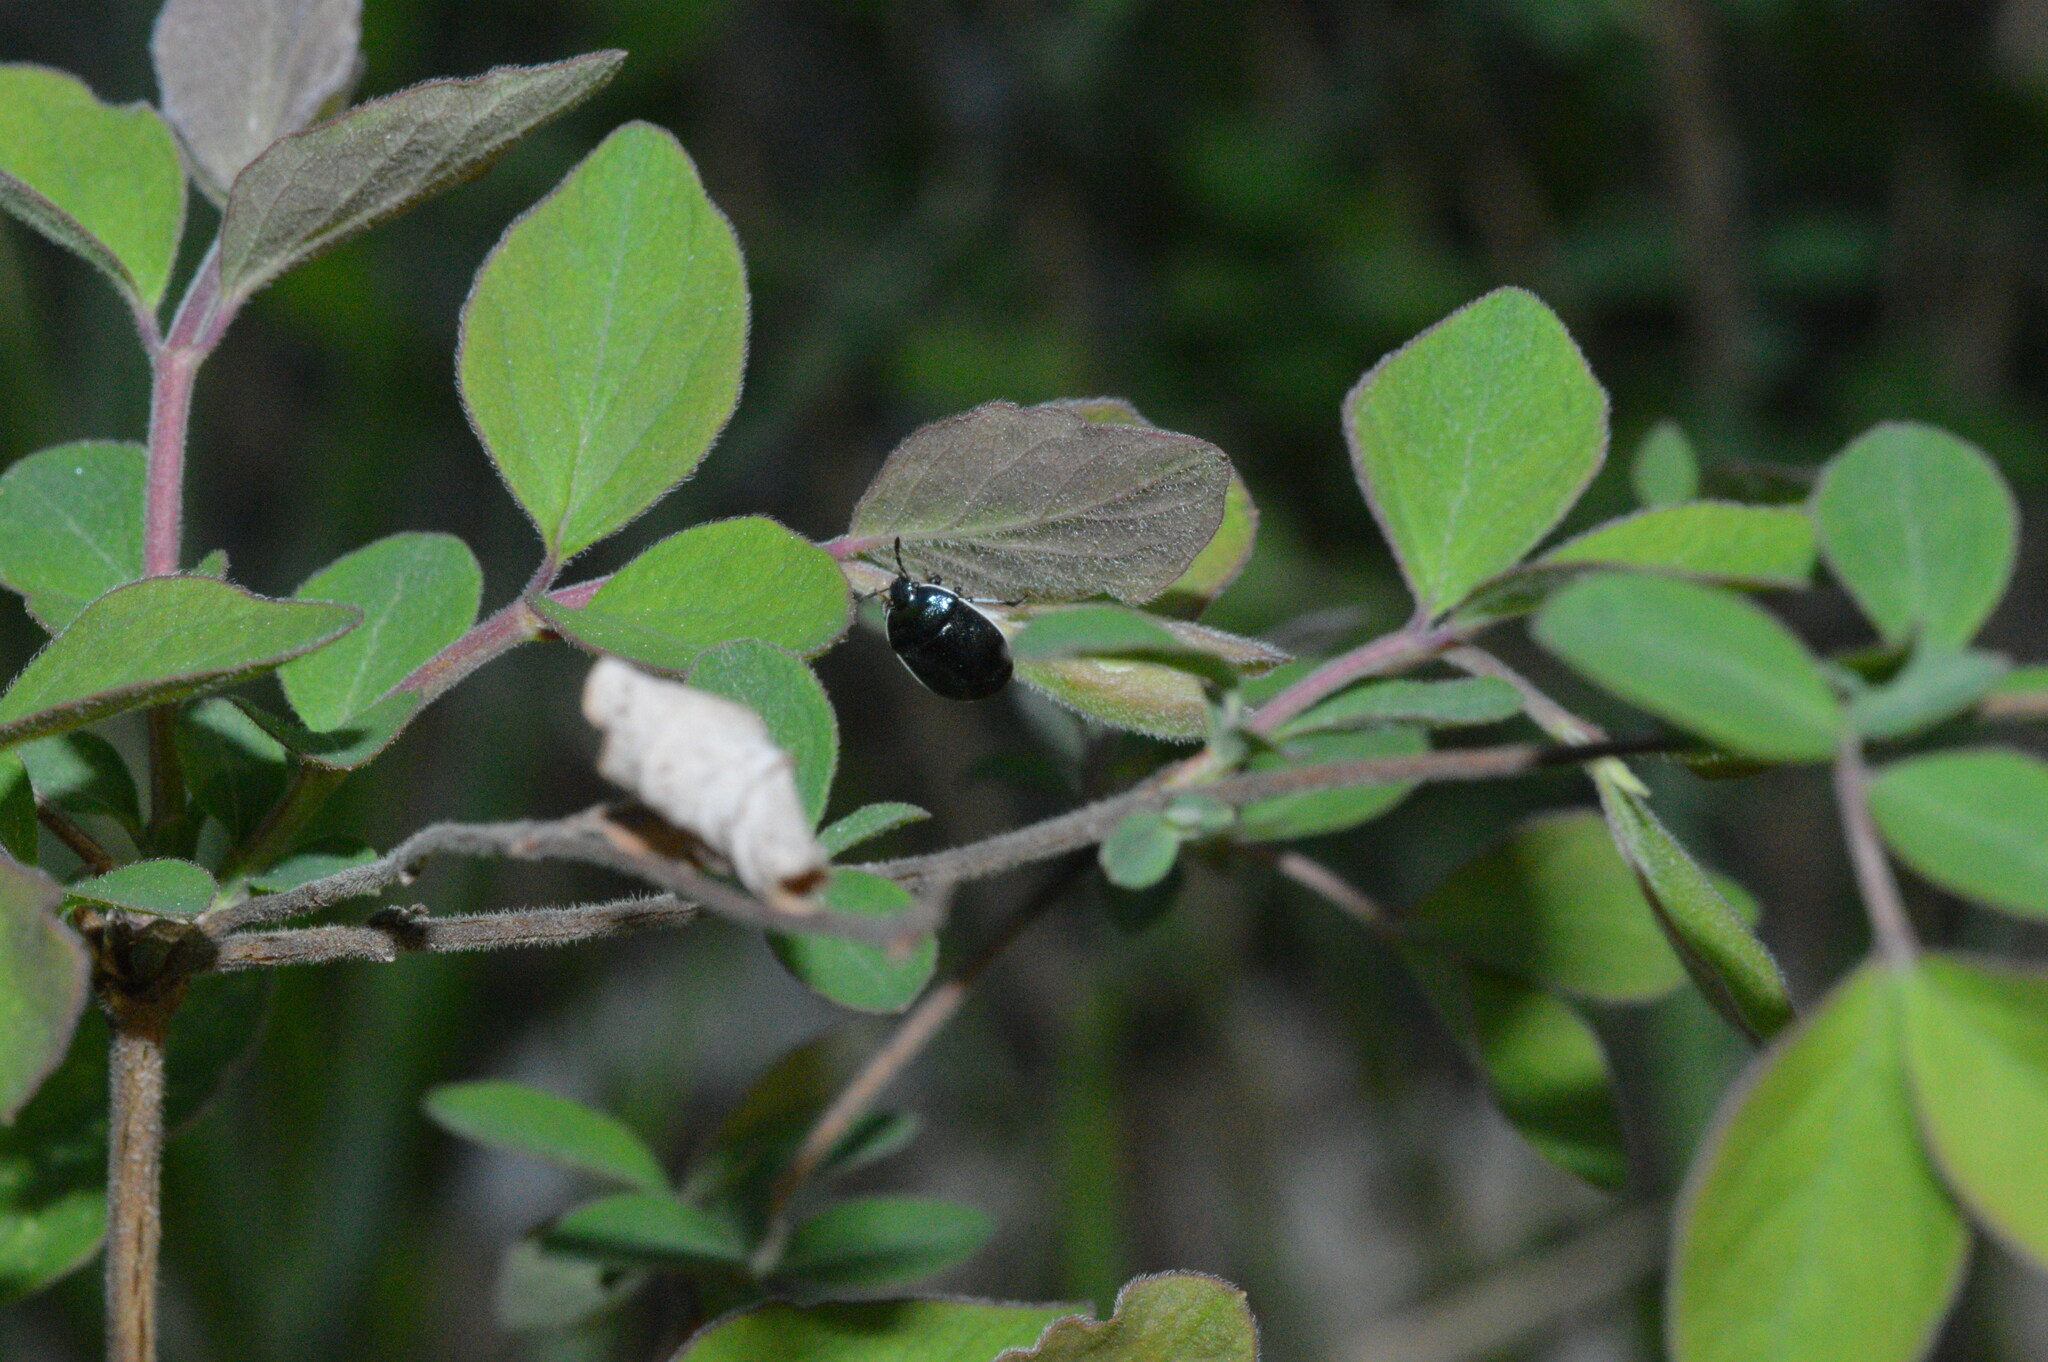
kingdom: Animalia
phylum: Arthropoda
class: Insecta
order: Hemiptera
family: Cydnidae
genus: Sehirus
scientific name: Sehirus cinctus
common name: White-margined burrower bug
